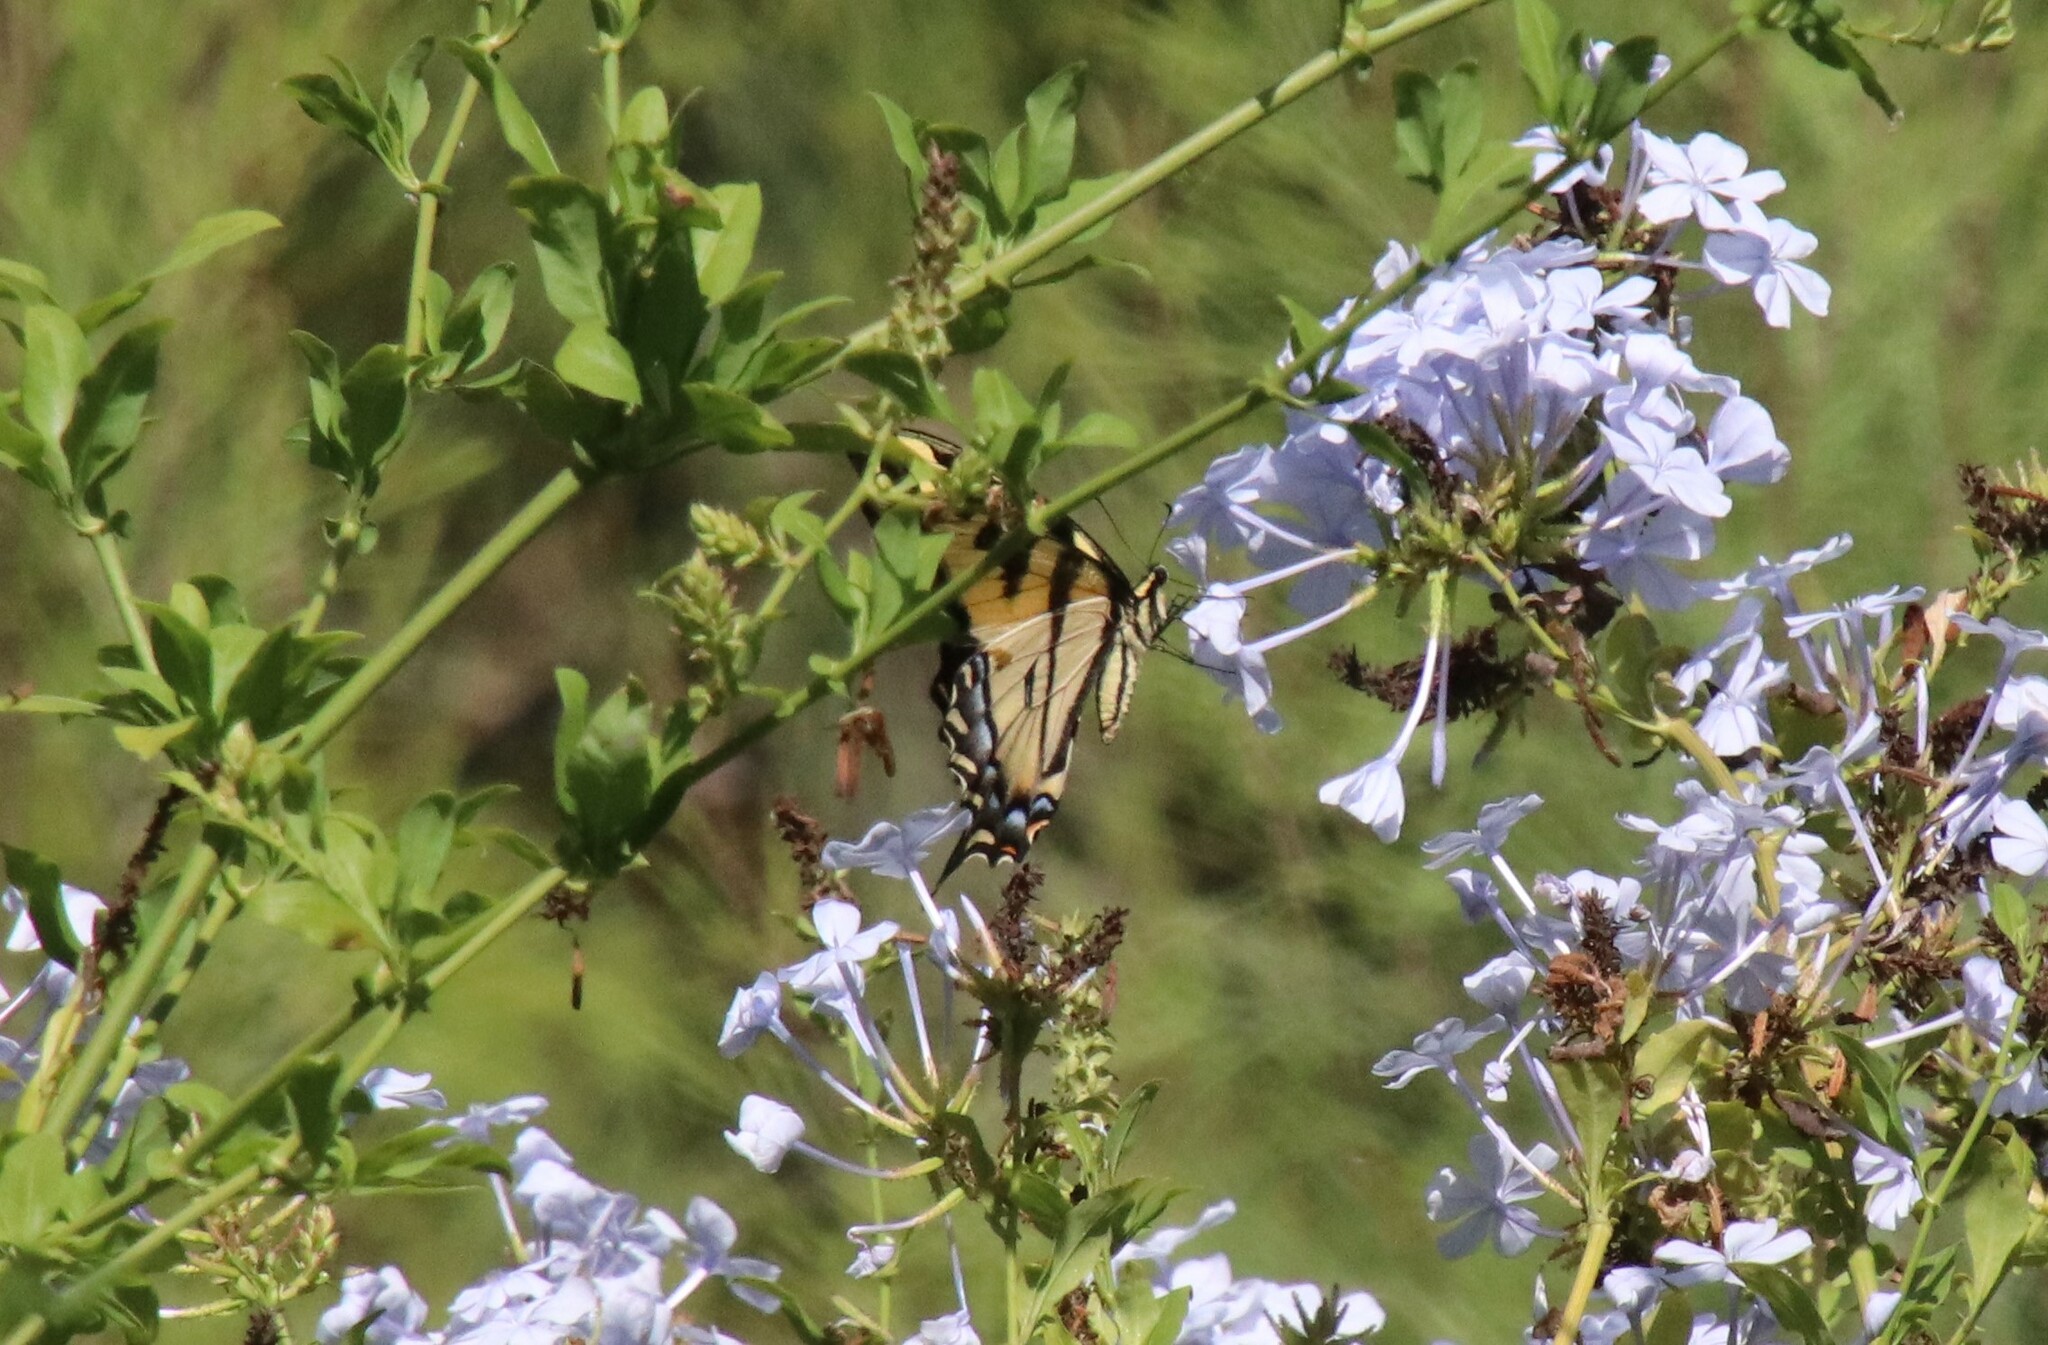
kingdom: Animalia
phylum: Arthropoda
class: Insecta
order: Lepidoptera
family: Papilionidae
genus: Papilio
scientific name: Papilio rutulus
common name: Western tiger swallowtail
